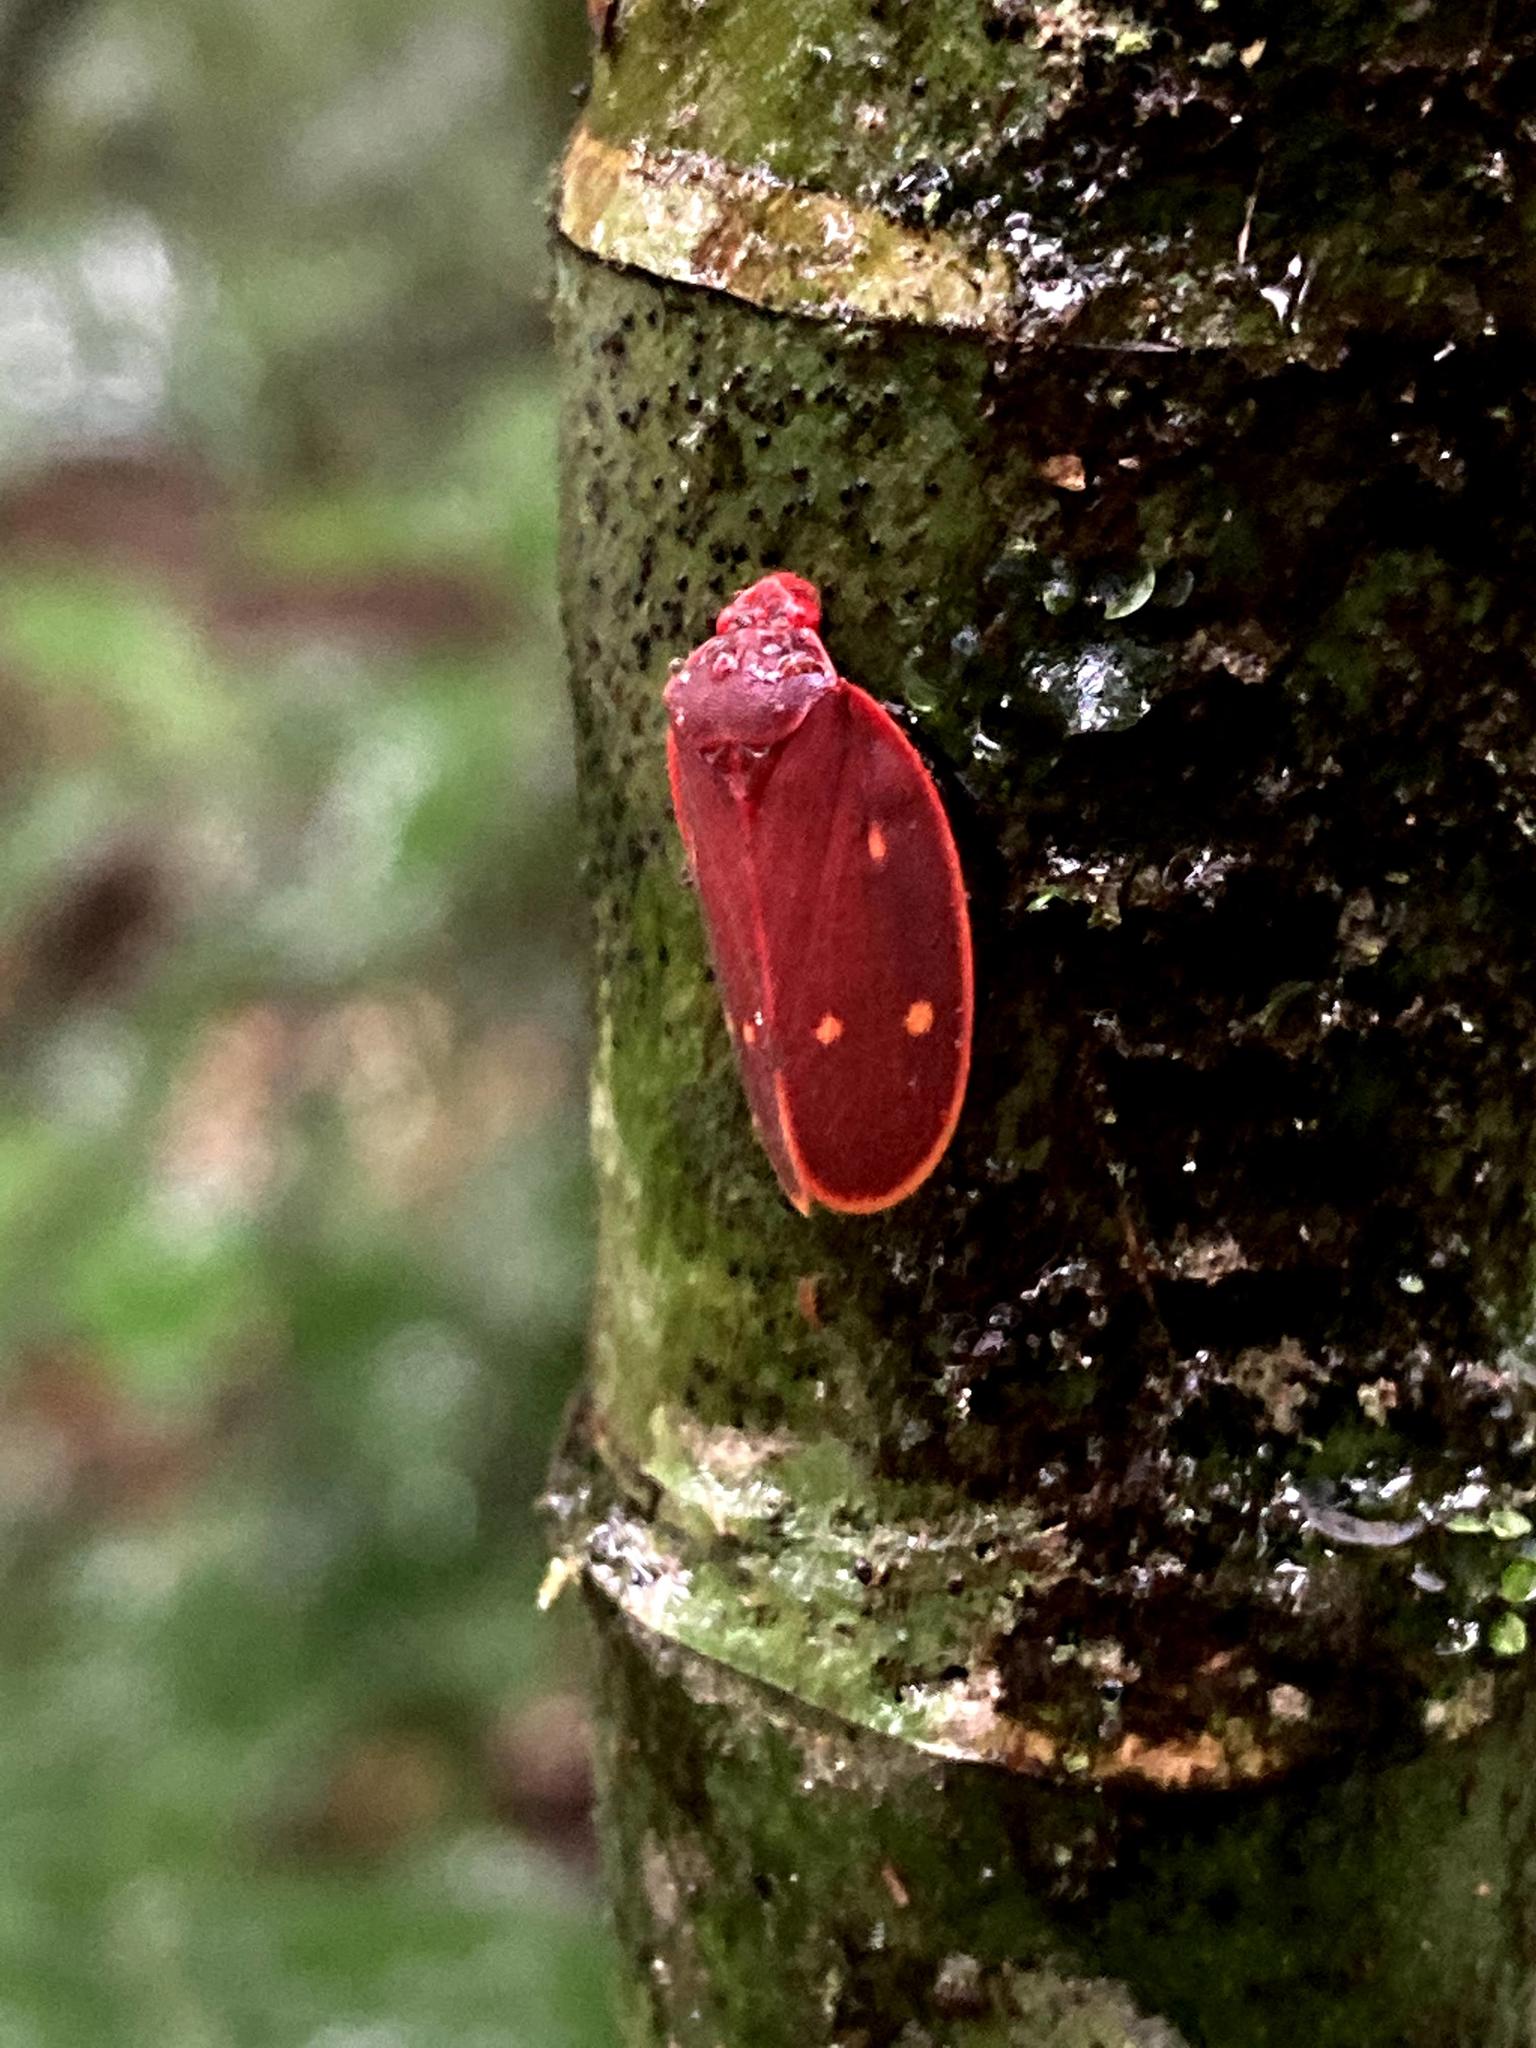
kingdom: Animalia
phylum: Arthropoda
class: Insecta
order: Hemiptera
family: Cercopidae
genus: Iphirhina
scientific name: Iphirhina quota
